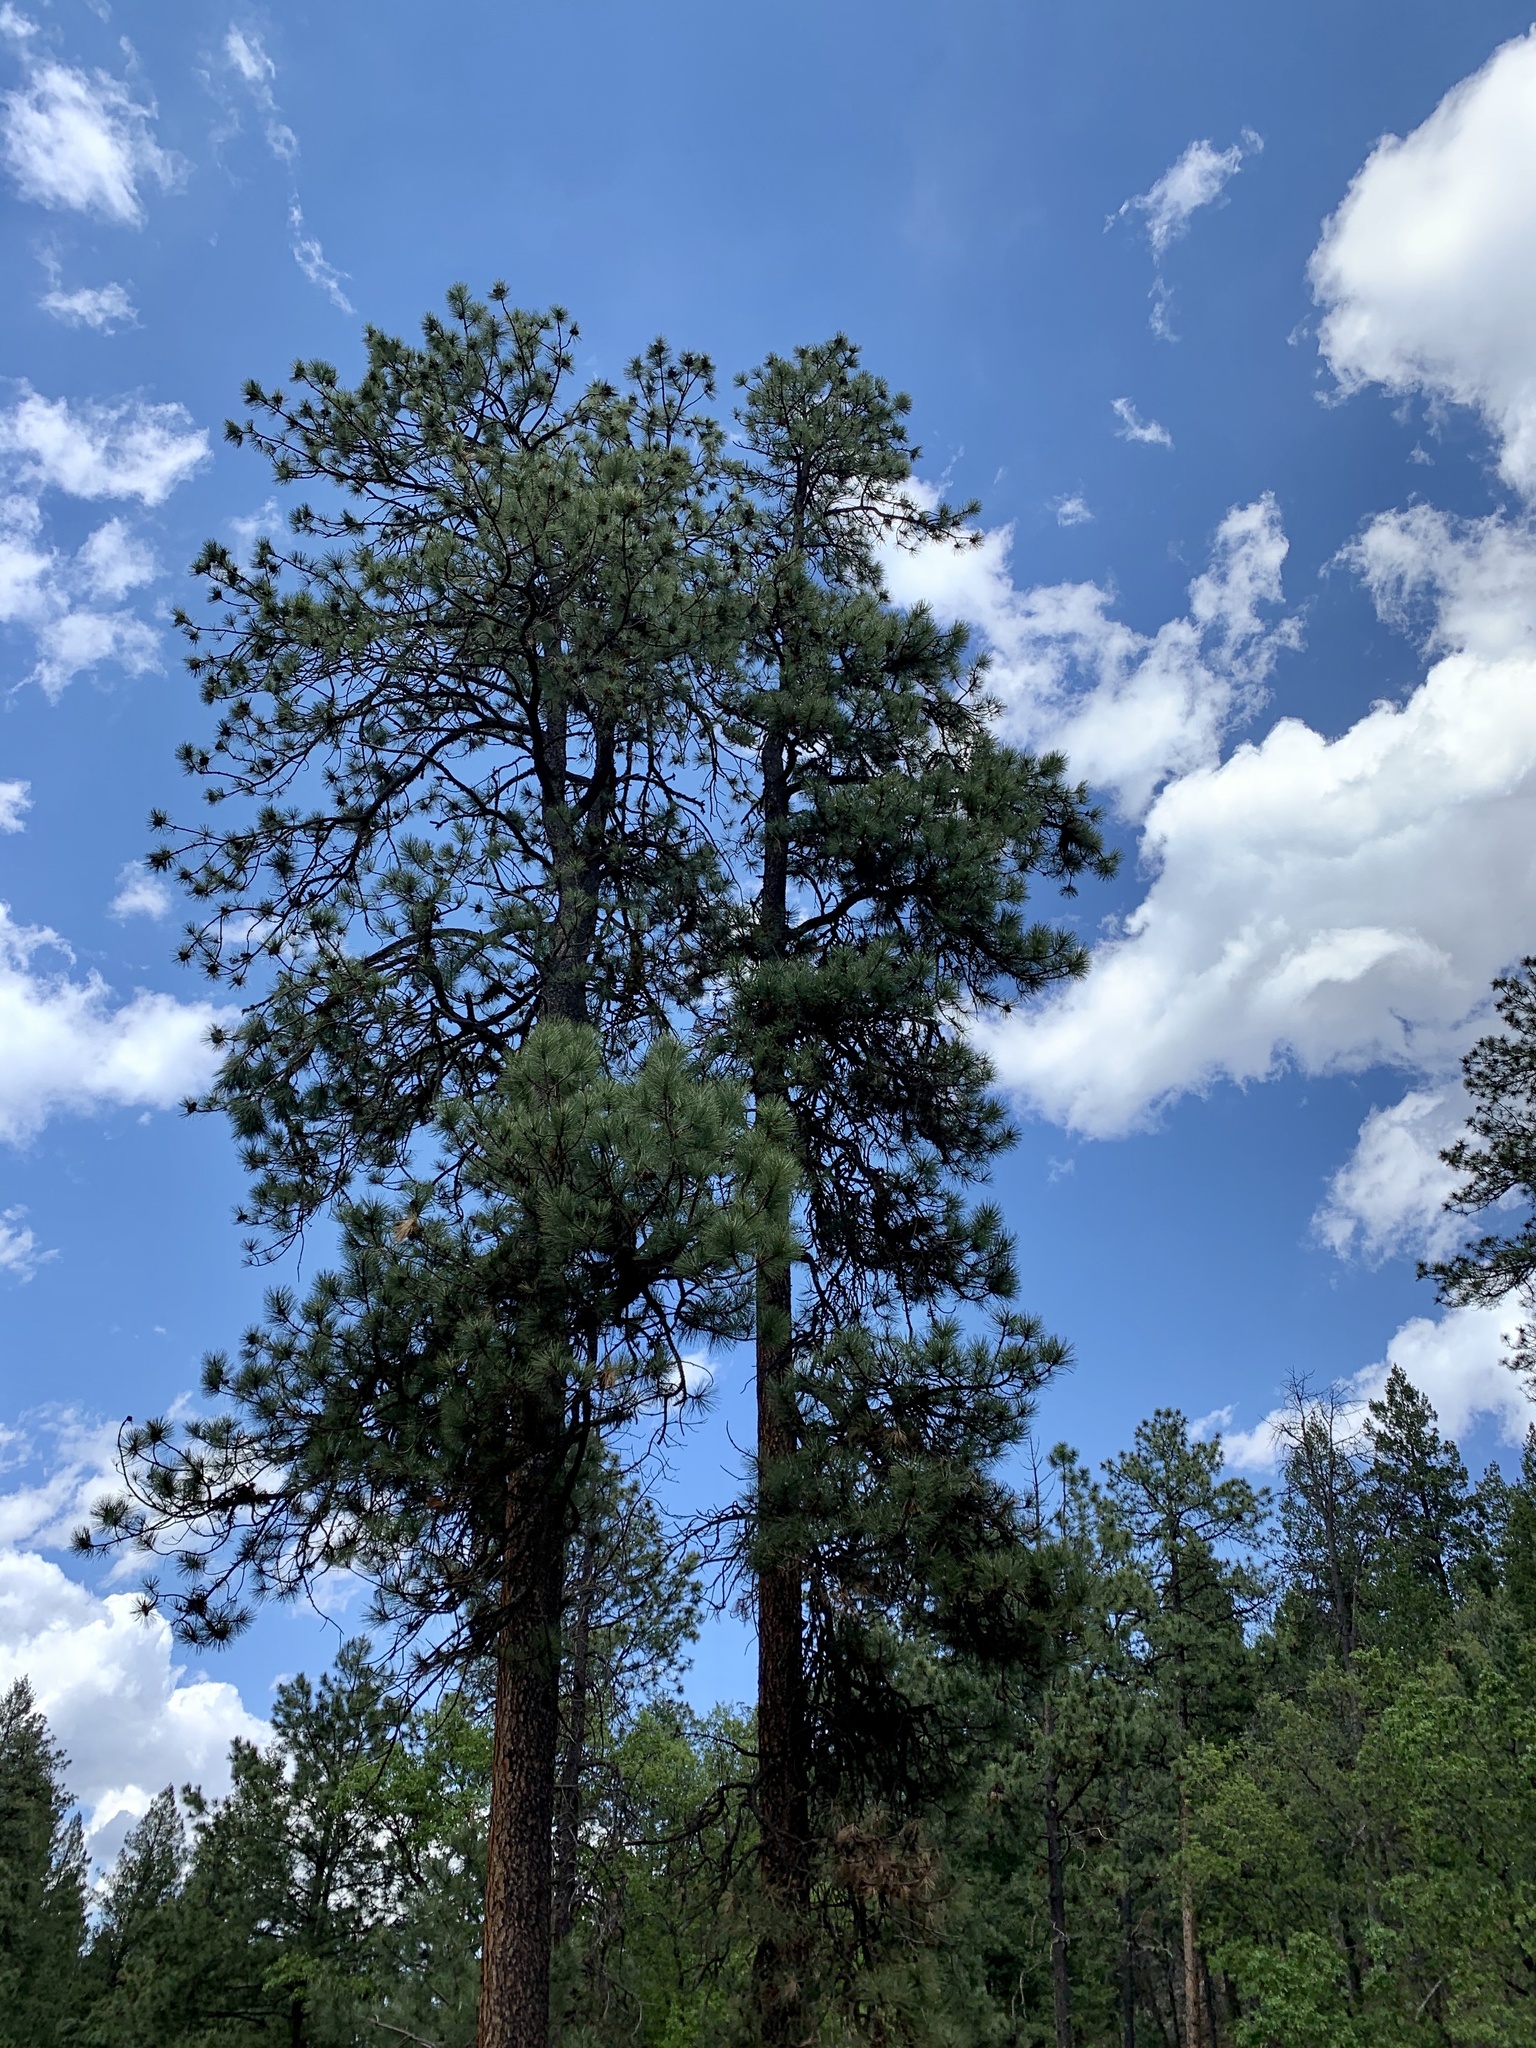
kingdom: Plantae
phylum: Tracheophyta
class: Pinopsida
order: Pinales
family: Pinaceae
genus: Pinus
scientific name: Pinus ponderosa
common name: Western yellow-pine
